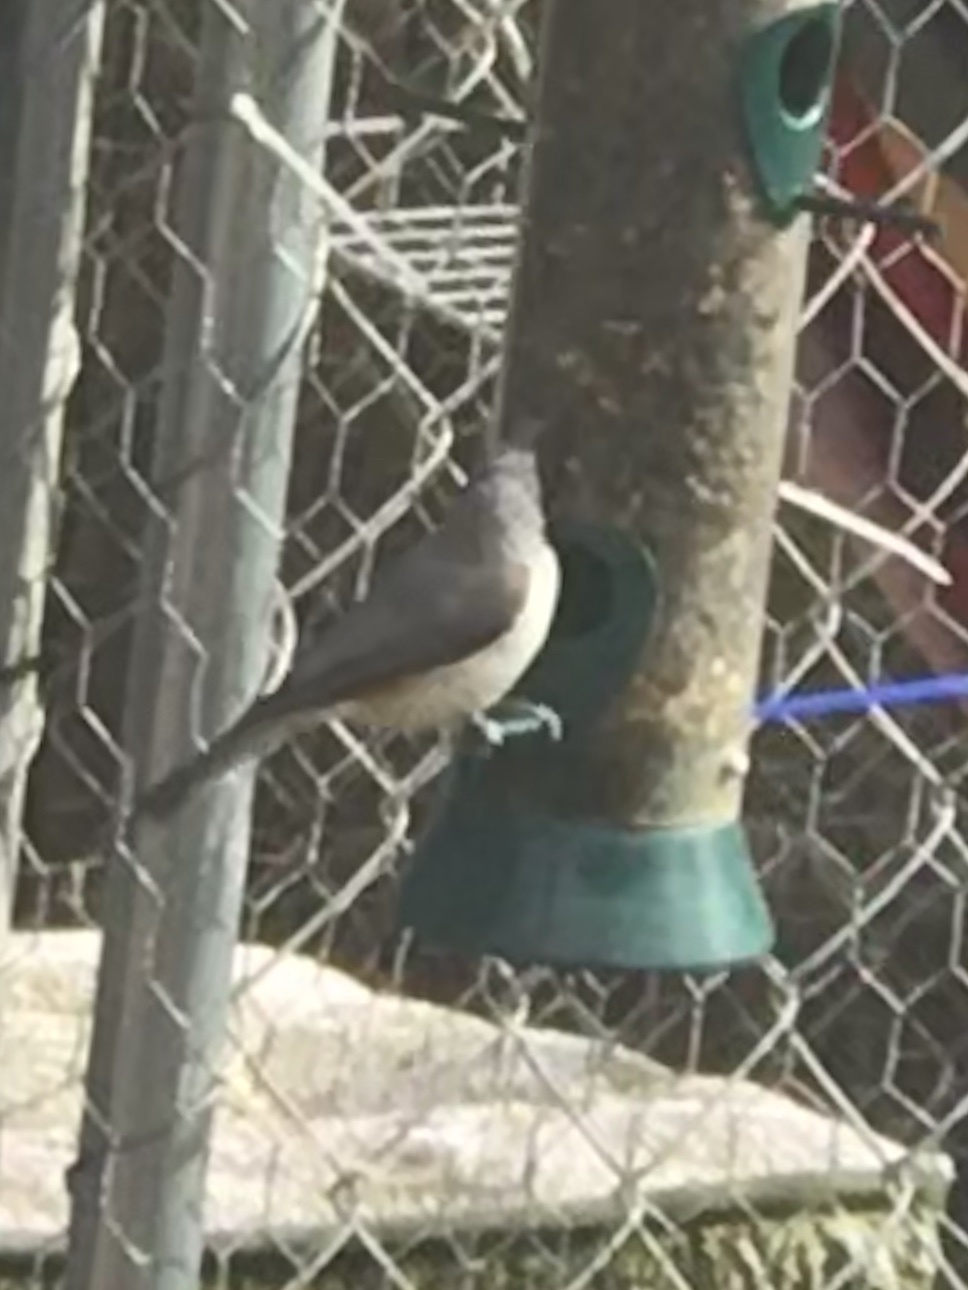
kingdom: Animalia
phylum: Chordata
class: Aves
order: Passeriformes
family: Paridae
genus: Baeolophus
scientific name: Baeolophus bicolor
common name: Tufted titmouse
